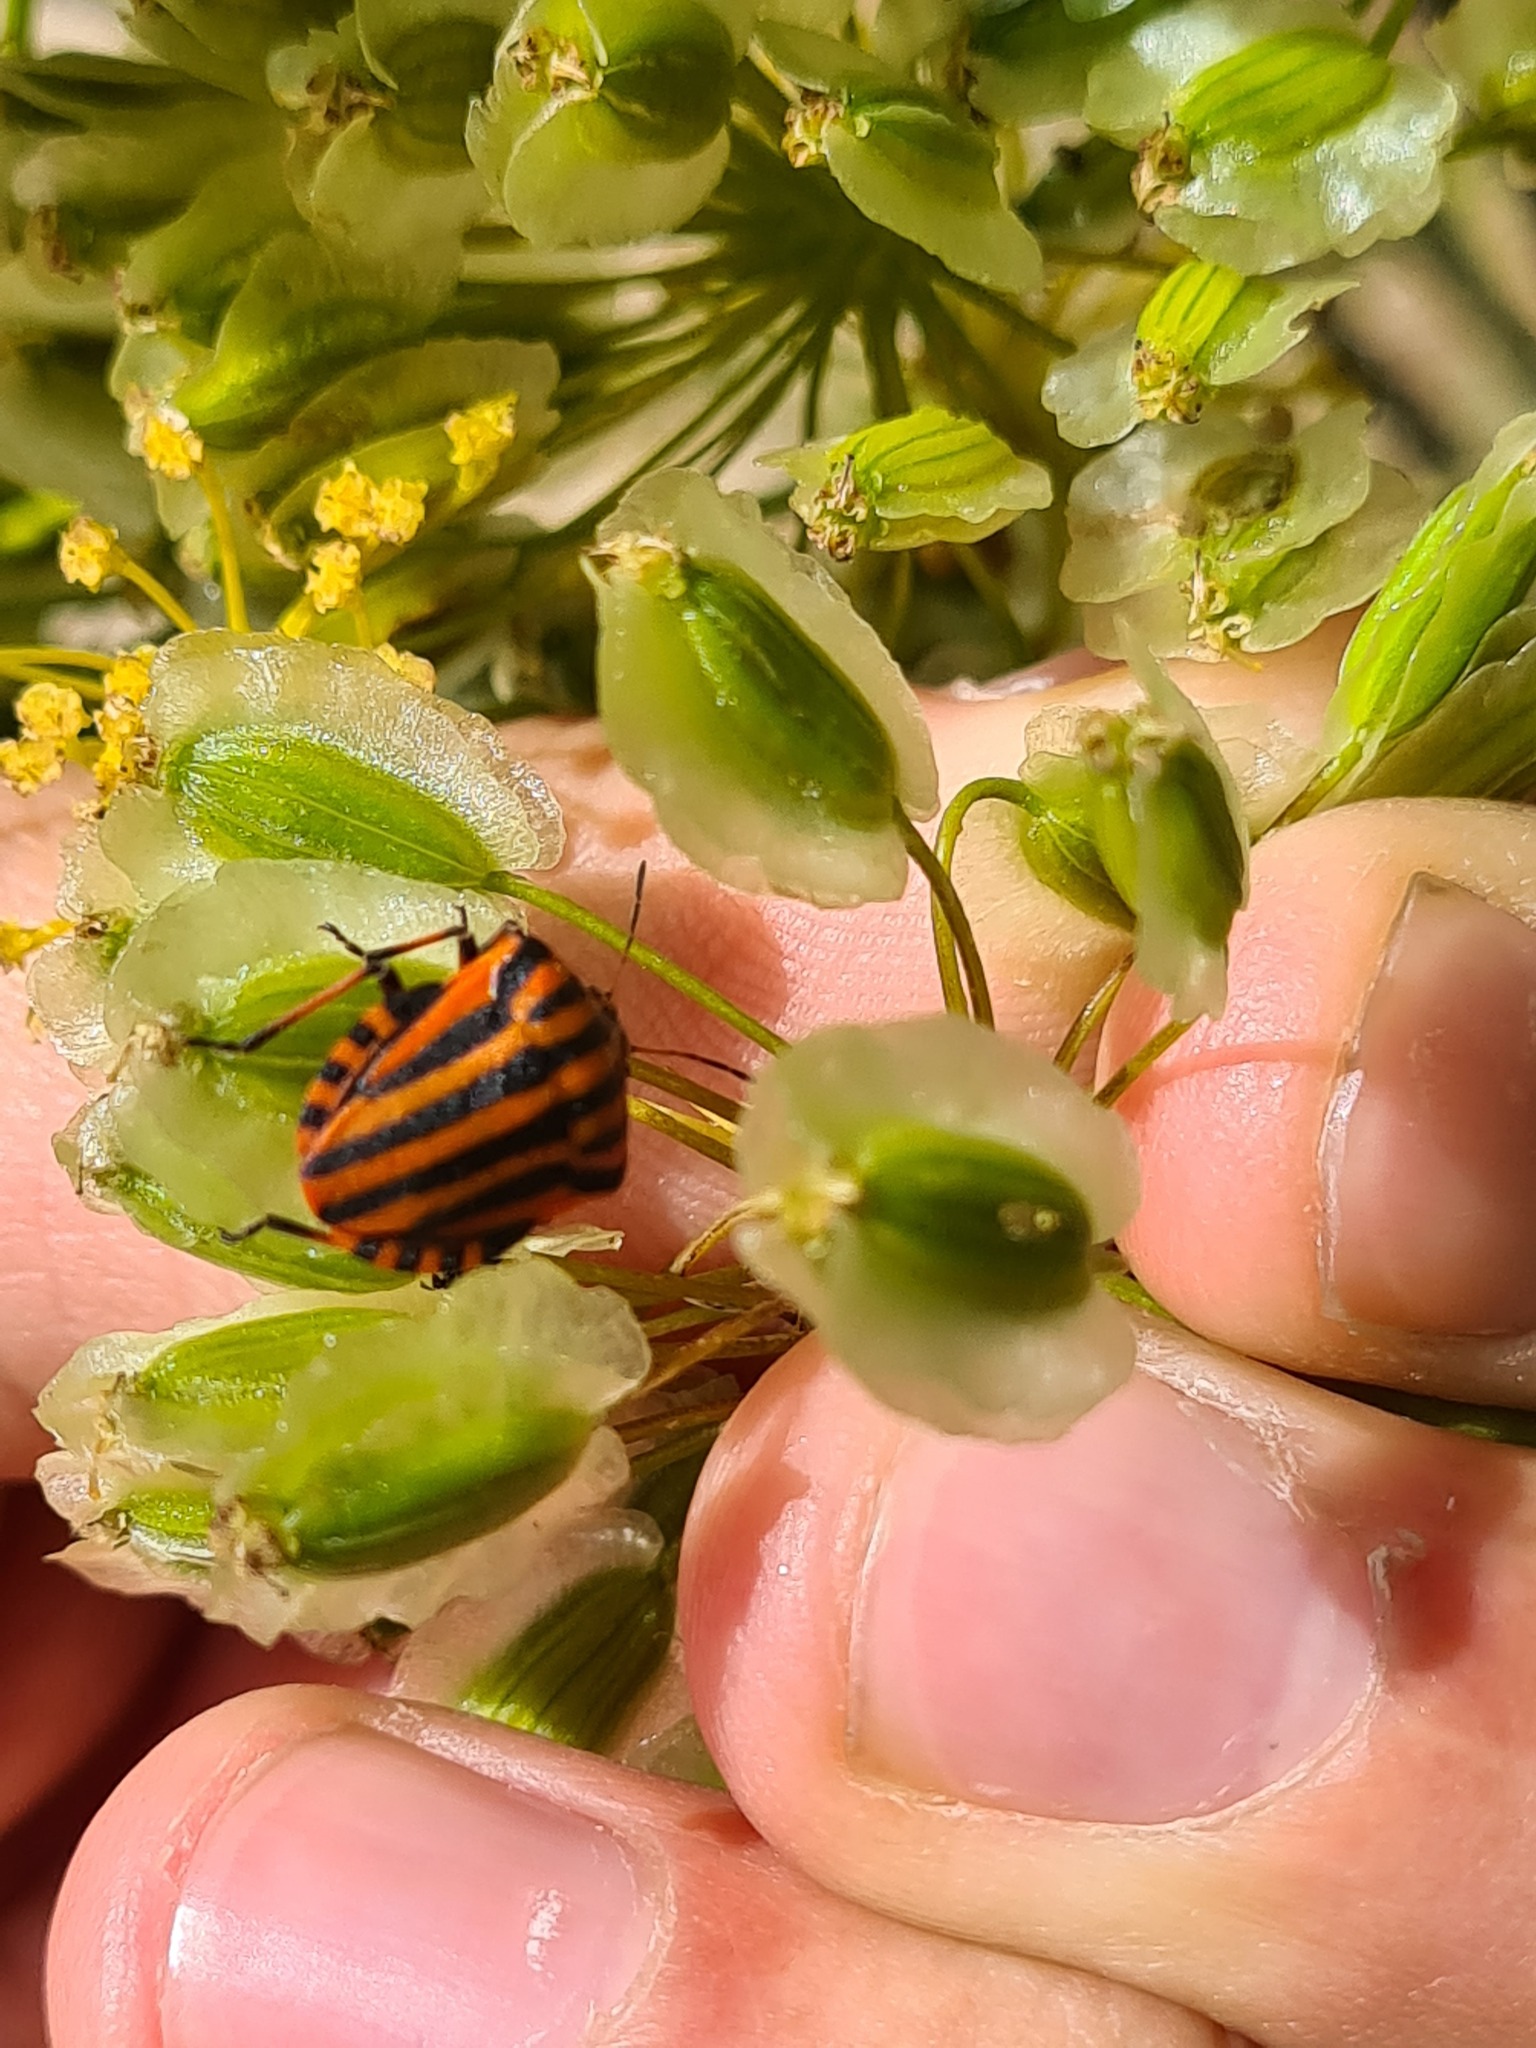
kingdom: Animalia
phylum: Arthropoda
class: Insecta
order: Hemiptera
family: Pentatomidae
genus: Graphosoma
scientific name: Graphosoma italicum
